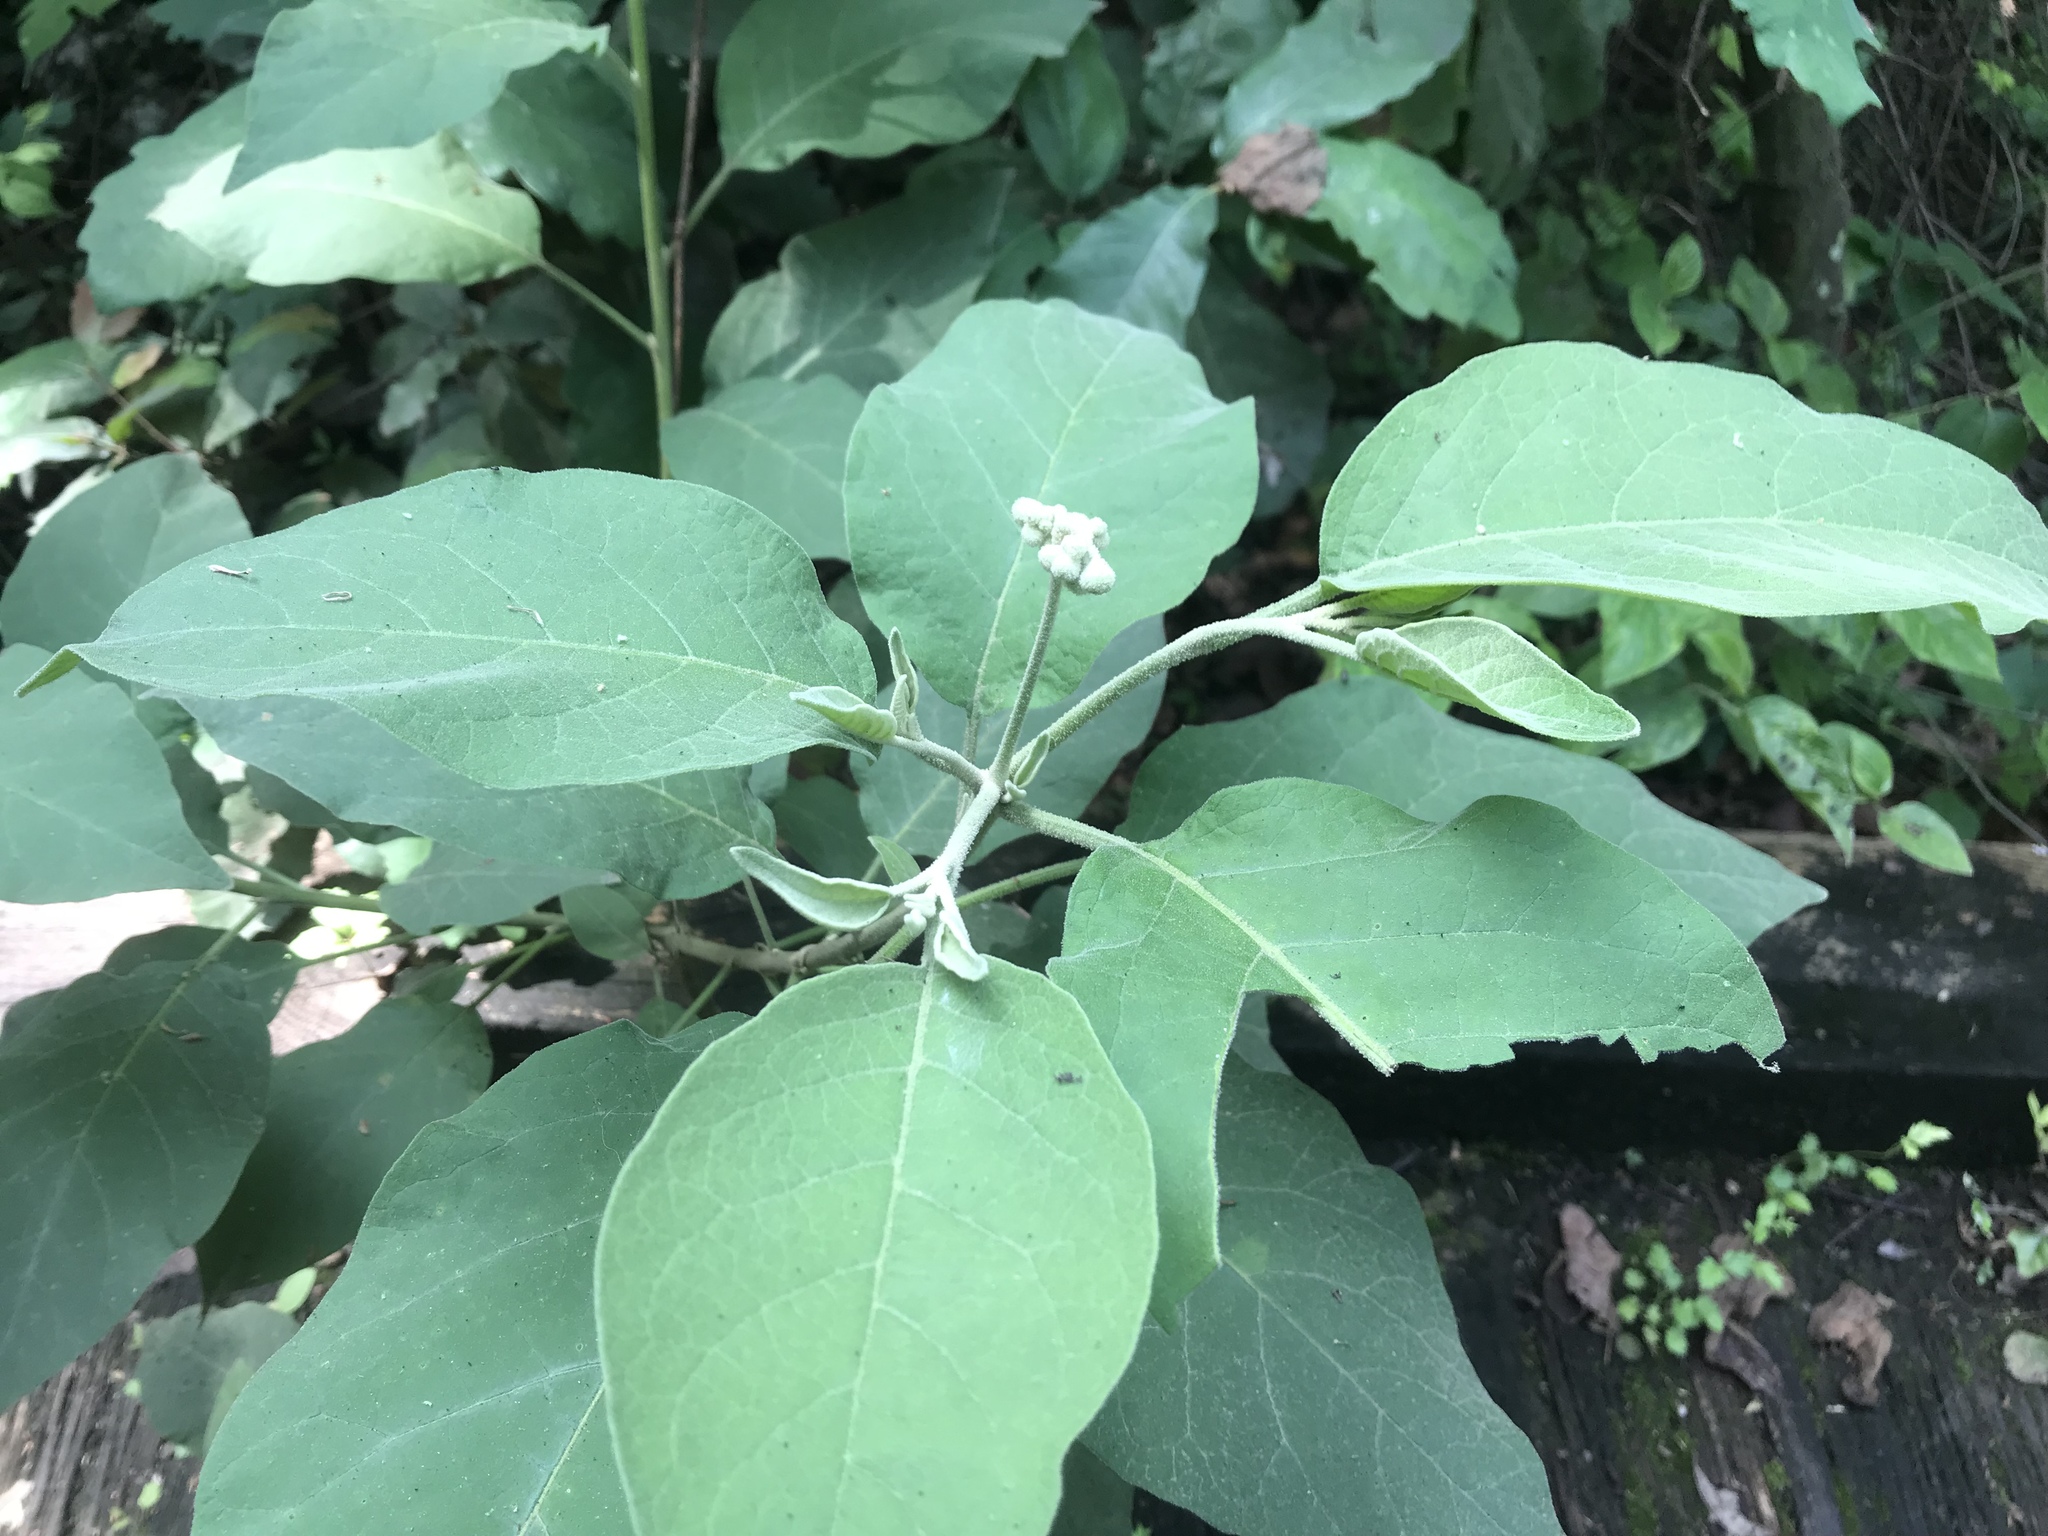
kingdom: Plantae
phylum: Tracheophyta
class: Magnoliopsida
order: Solanales
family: Solanaceae
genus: Solanum
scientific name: Solanum erianthum
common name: Tobacco-tree
